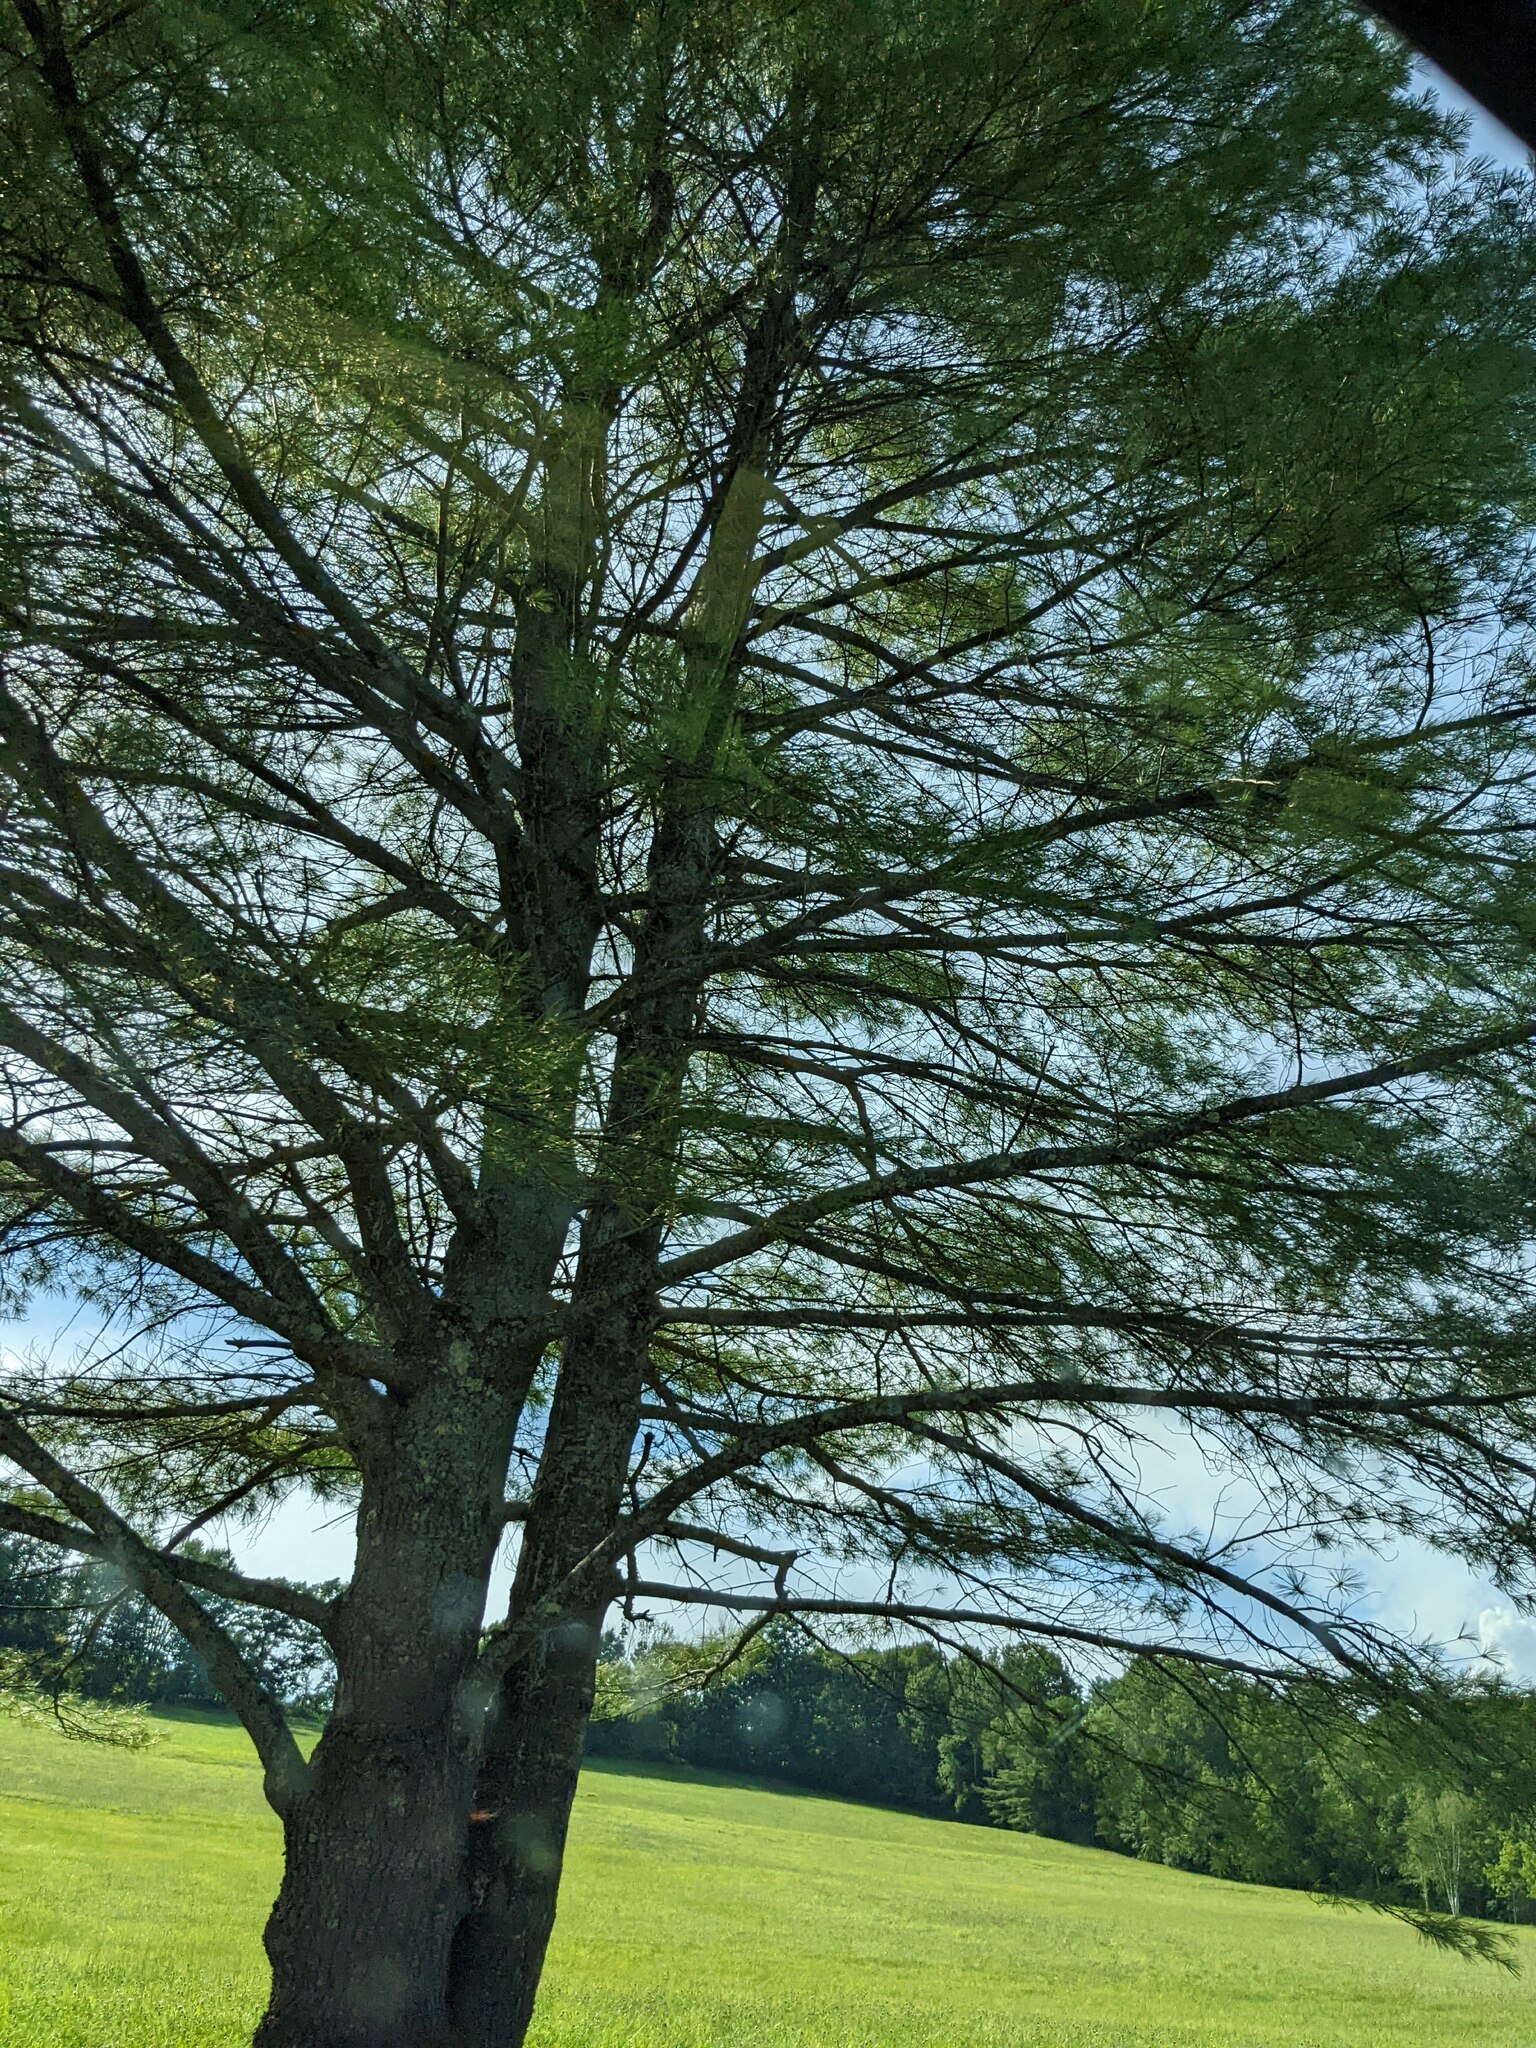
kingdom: Plantae
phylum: Tracheophyta
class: Pinopsida
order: Pinales
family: Pinaceae
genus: Pinus
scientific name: Pinus strobus
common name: Weymouth pine
